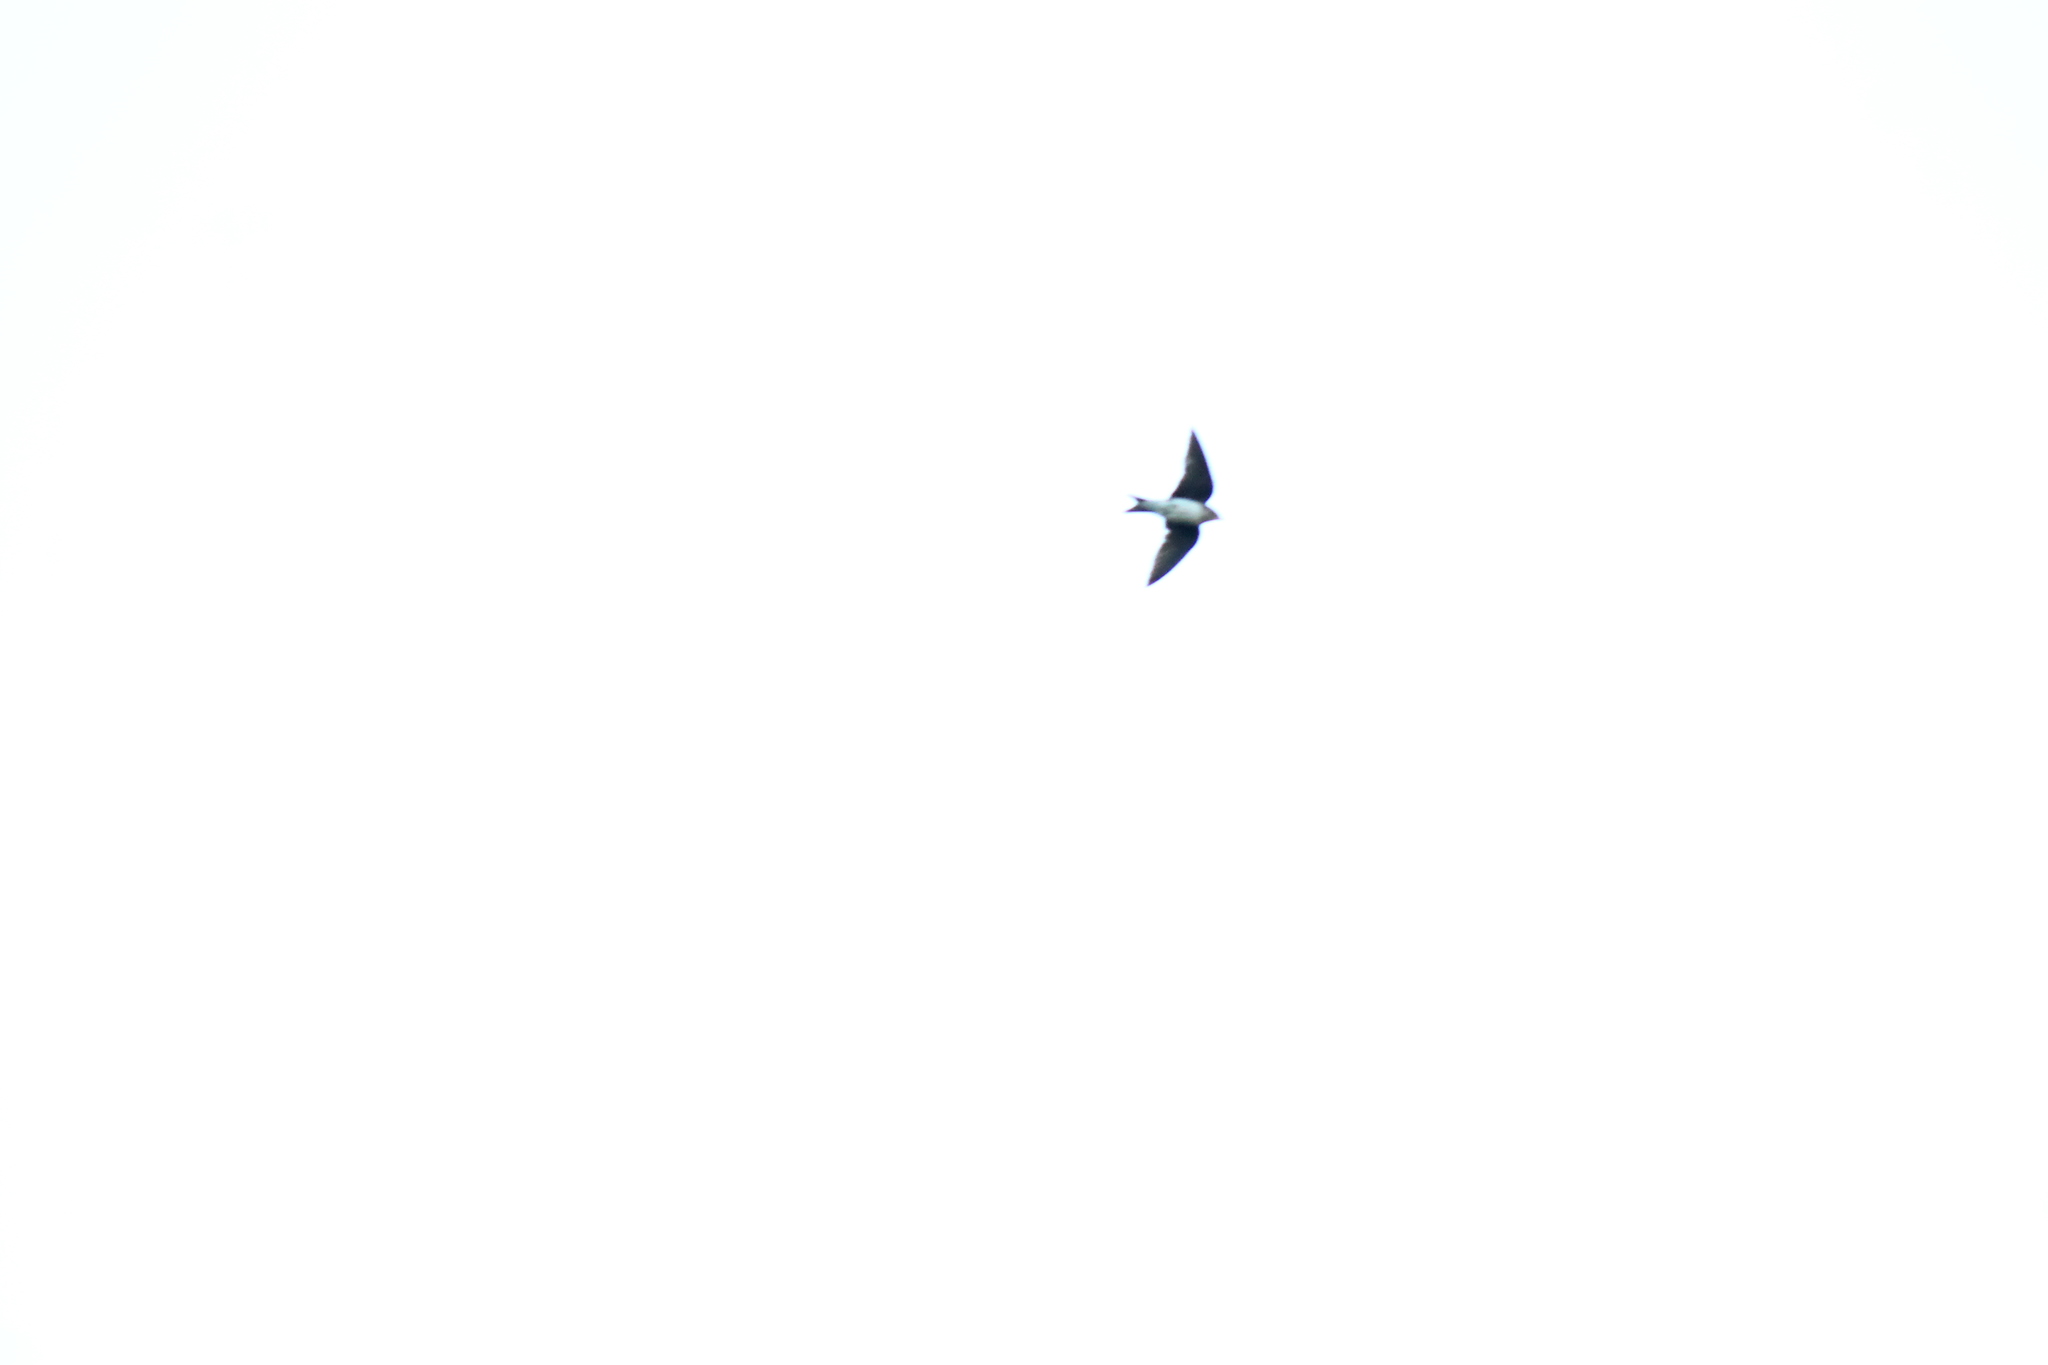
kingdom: Animalia
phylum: Chordata
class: Aves
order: Passeriformes
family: Hirundinidae
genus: Progne
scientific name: Progne chalybea
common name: Grey-breasted martin
